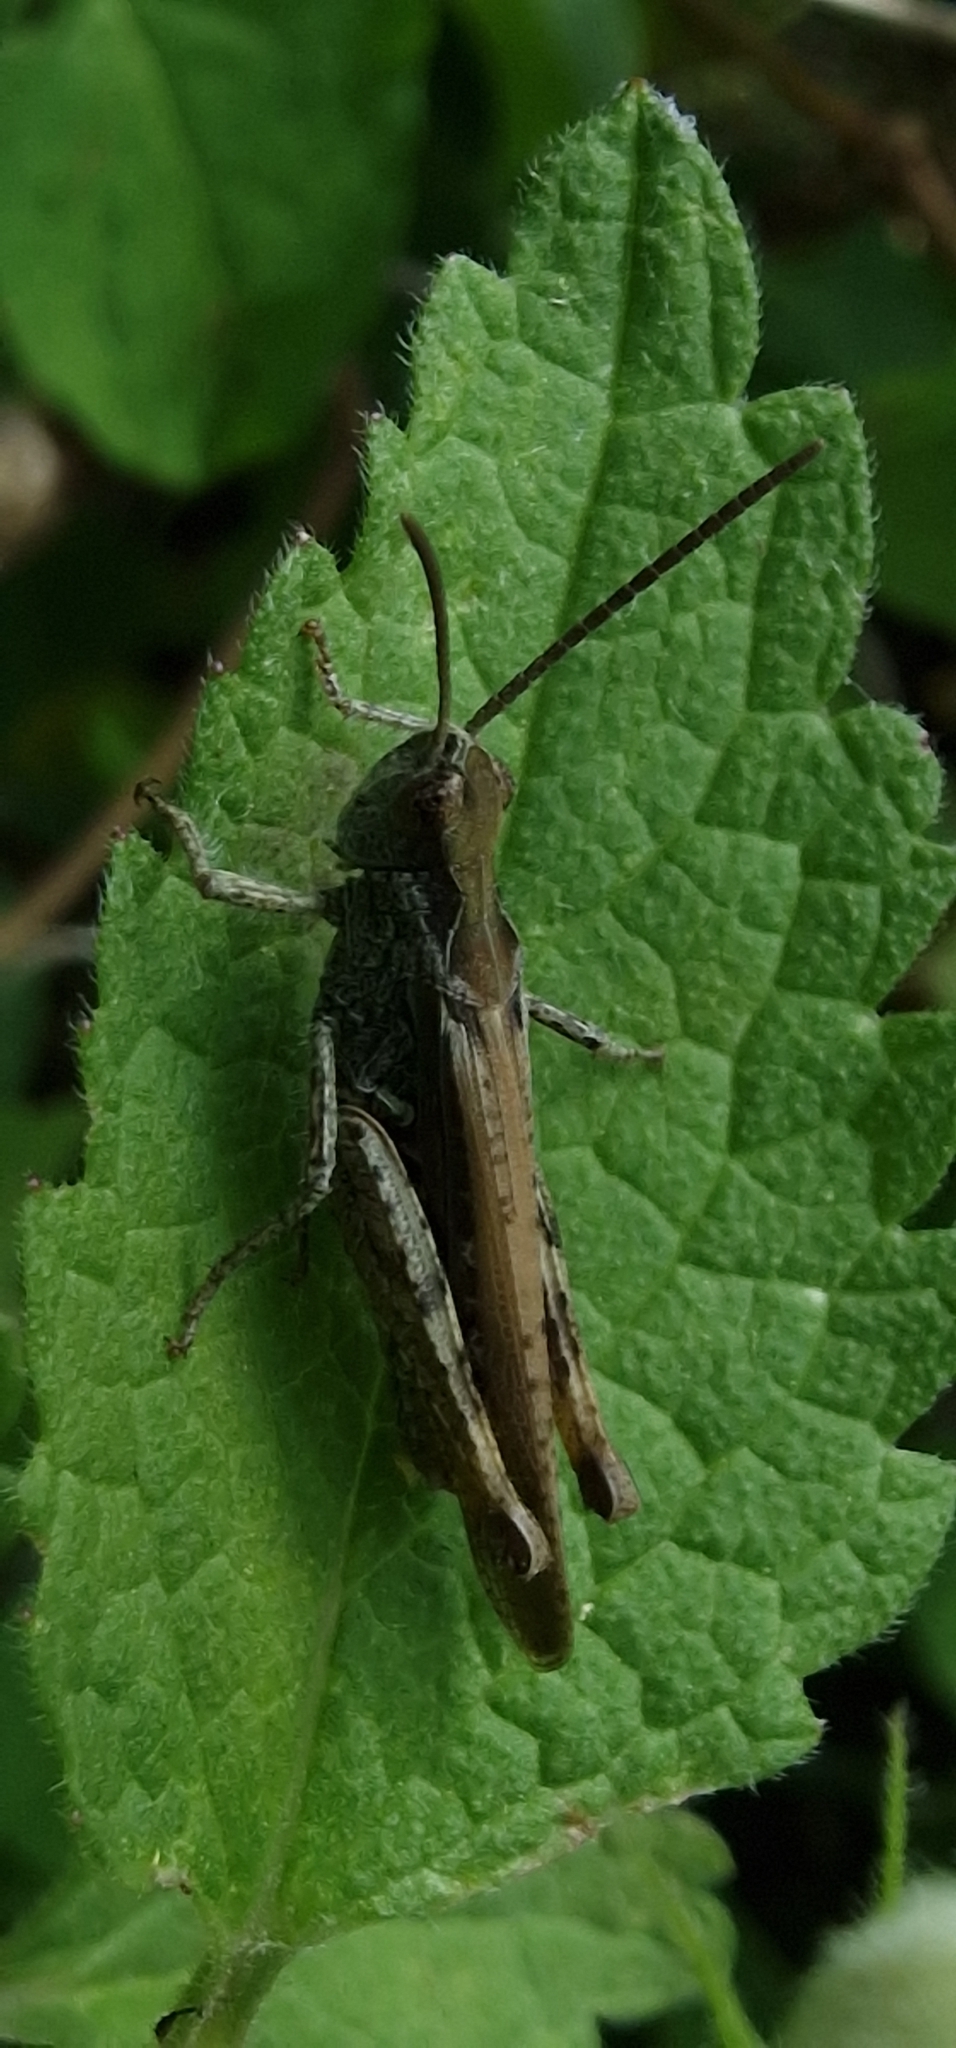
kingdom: Animalia
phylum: Arthropoda
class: Insecta
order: Orthoptera
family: Acrididae
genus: Chorthippus
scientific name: Chorthippus brunneus
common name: Field grasshopper
